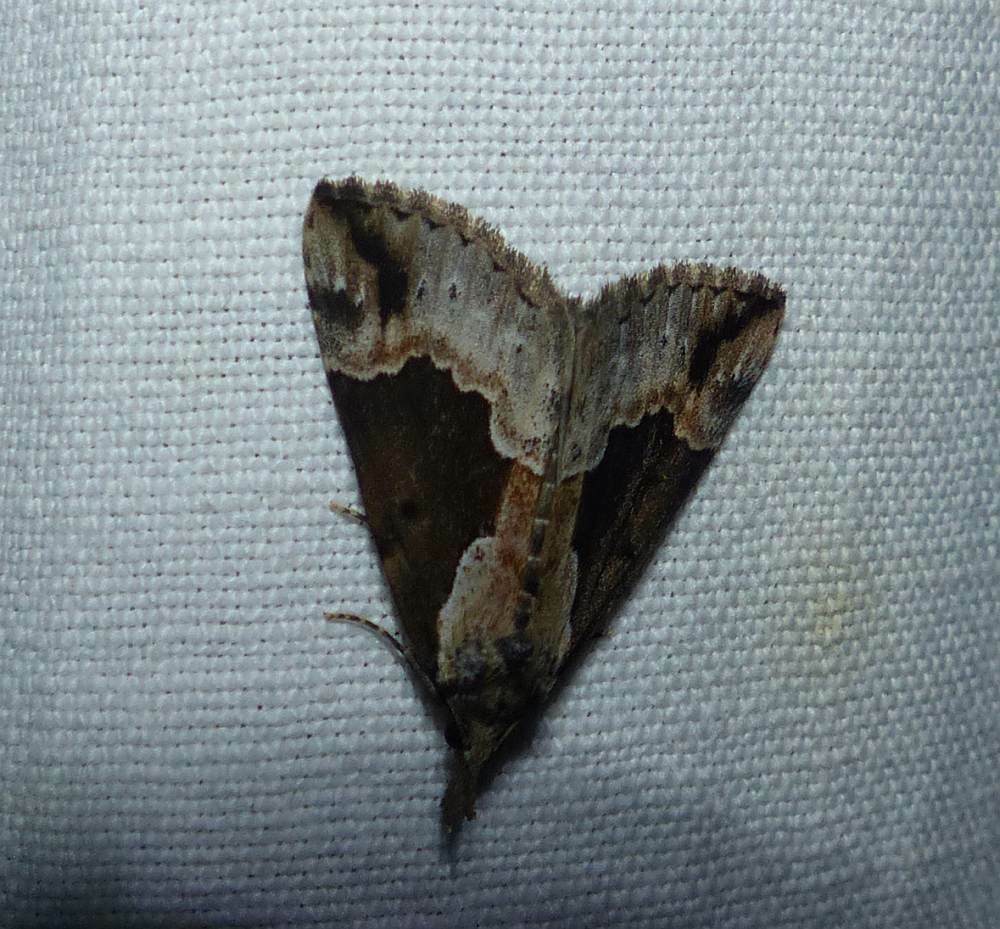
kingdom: Animalia
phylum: Arthropoda
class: Insecta
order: Lepidoptera
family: Erebidae
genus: Hypena
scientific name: Hypena baltimoralis
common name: Baltimore snout
